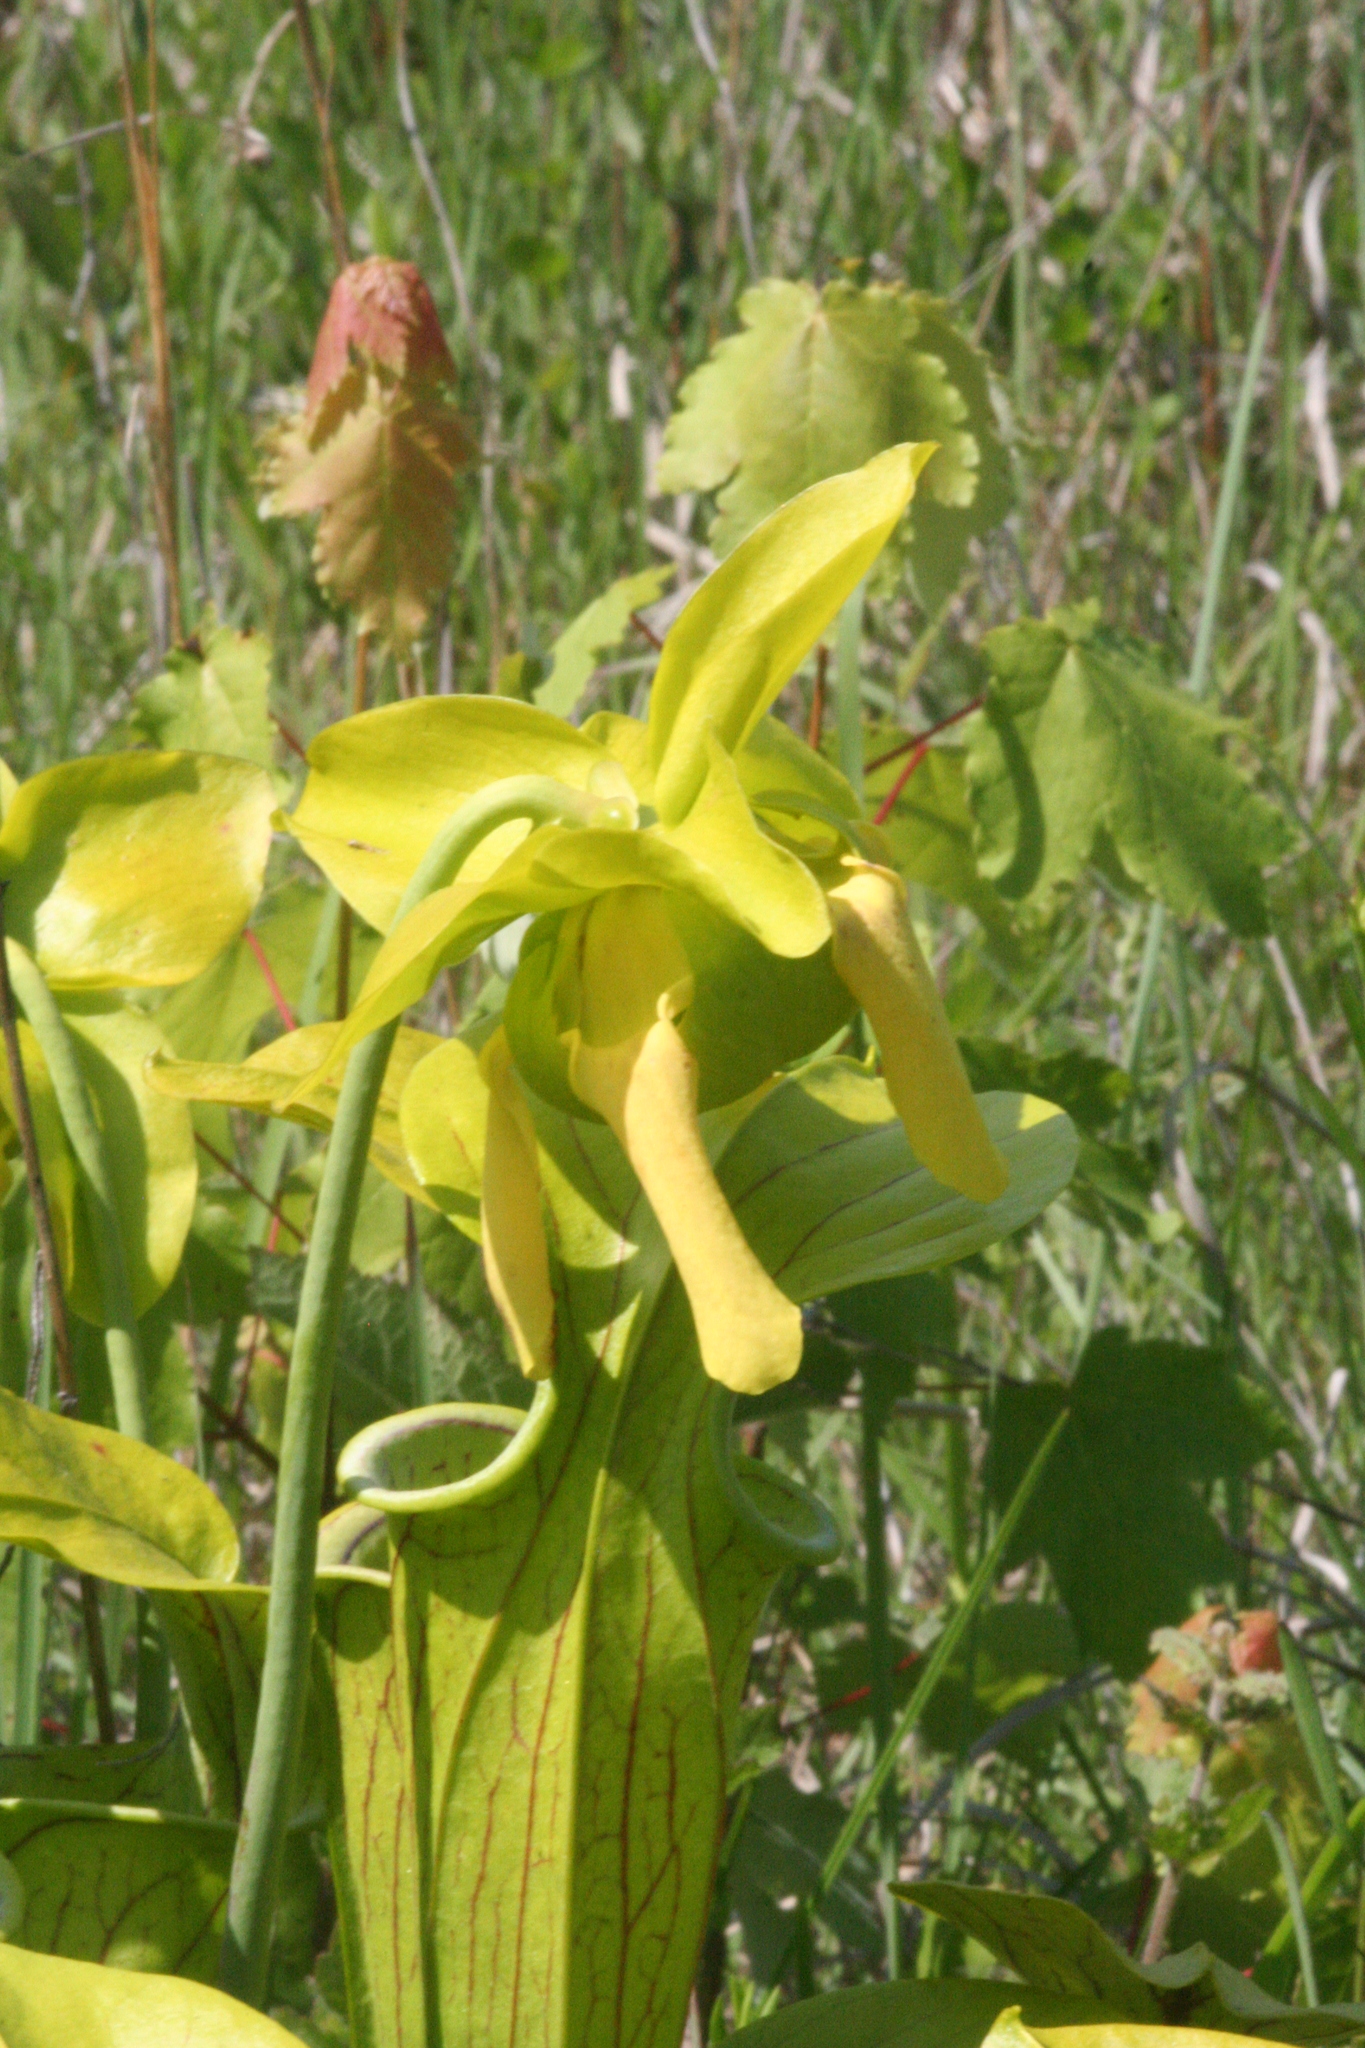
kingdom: Plantae
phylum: Tracheophyta
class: Magnoliopsida
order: Ericales
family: Sarraceniaceae
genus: Sarracenia
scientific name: Sarracenia oreophila
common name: Green pitcherplant
